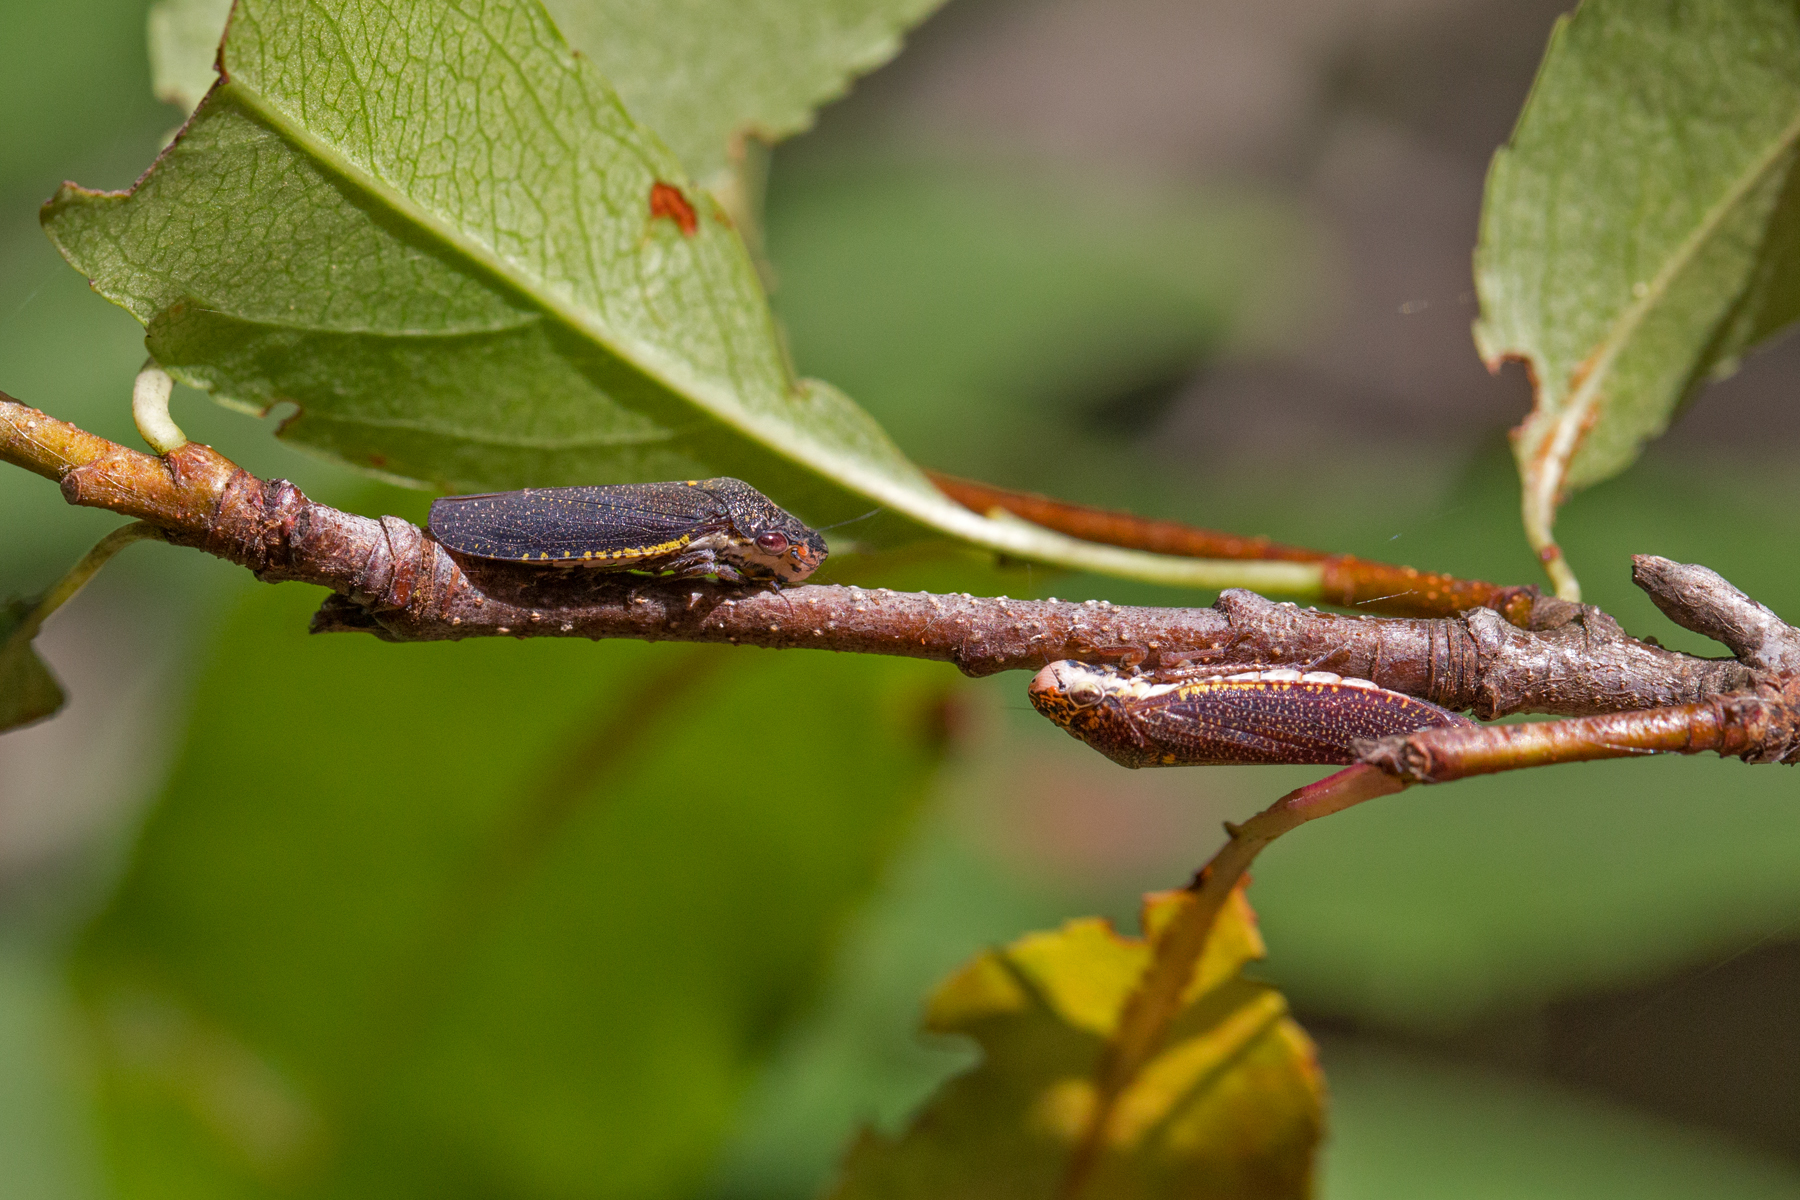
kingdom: Animalia
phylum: Arthropoda
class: Insecta
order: Hemiptera
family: Cicadellidae
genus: Paraulacizes
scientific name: Paraulacizes irrorata
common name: Speckled sharpshooter
